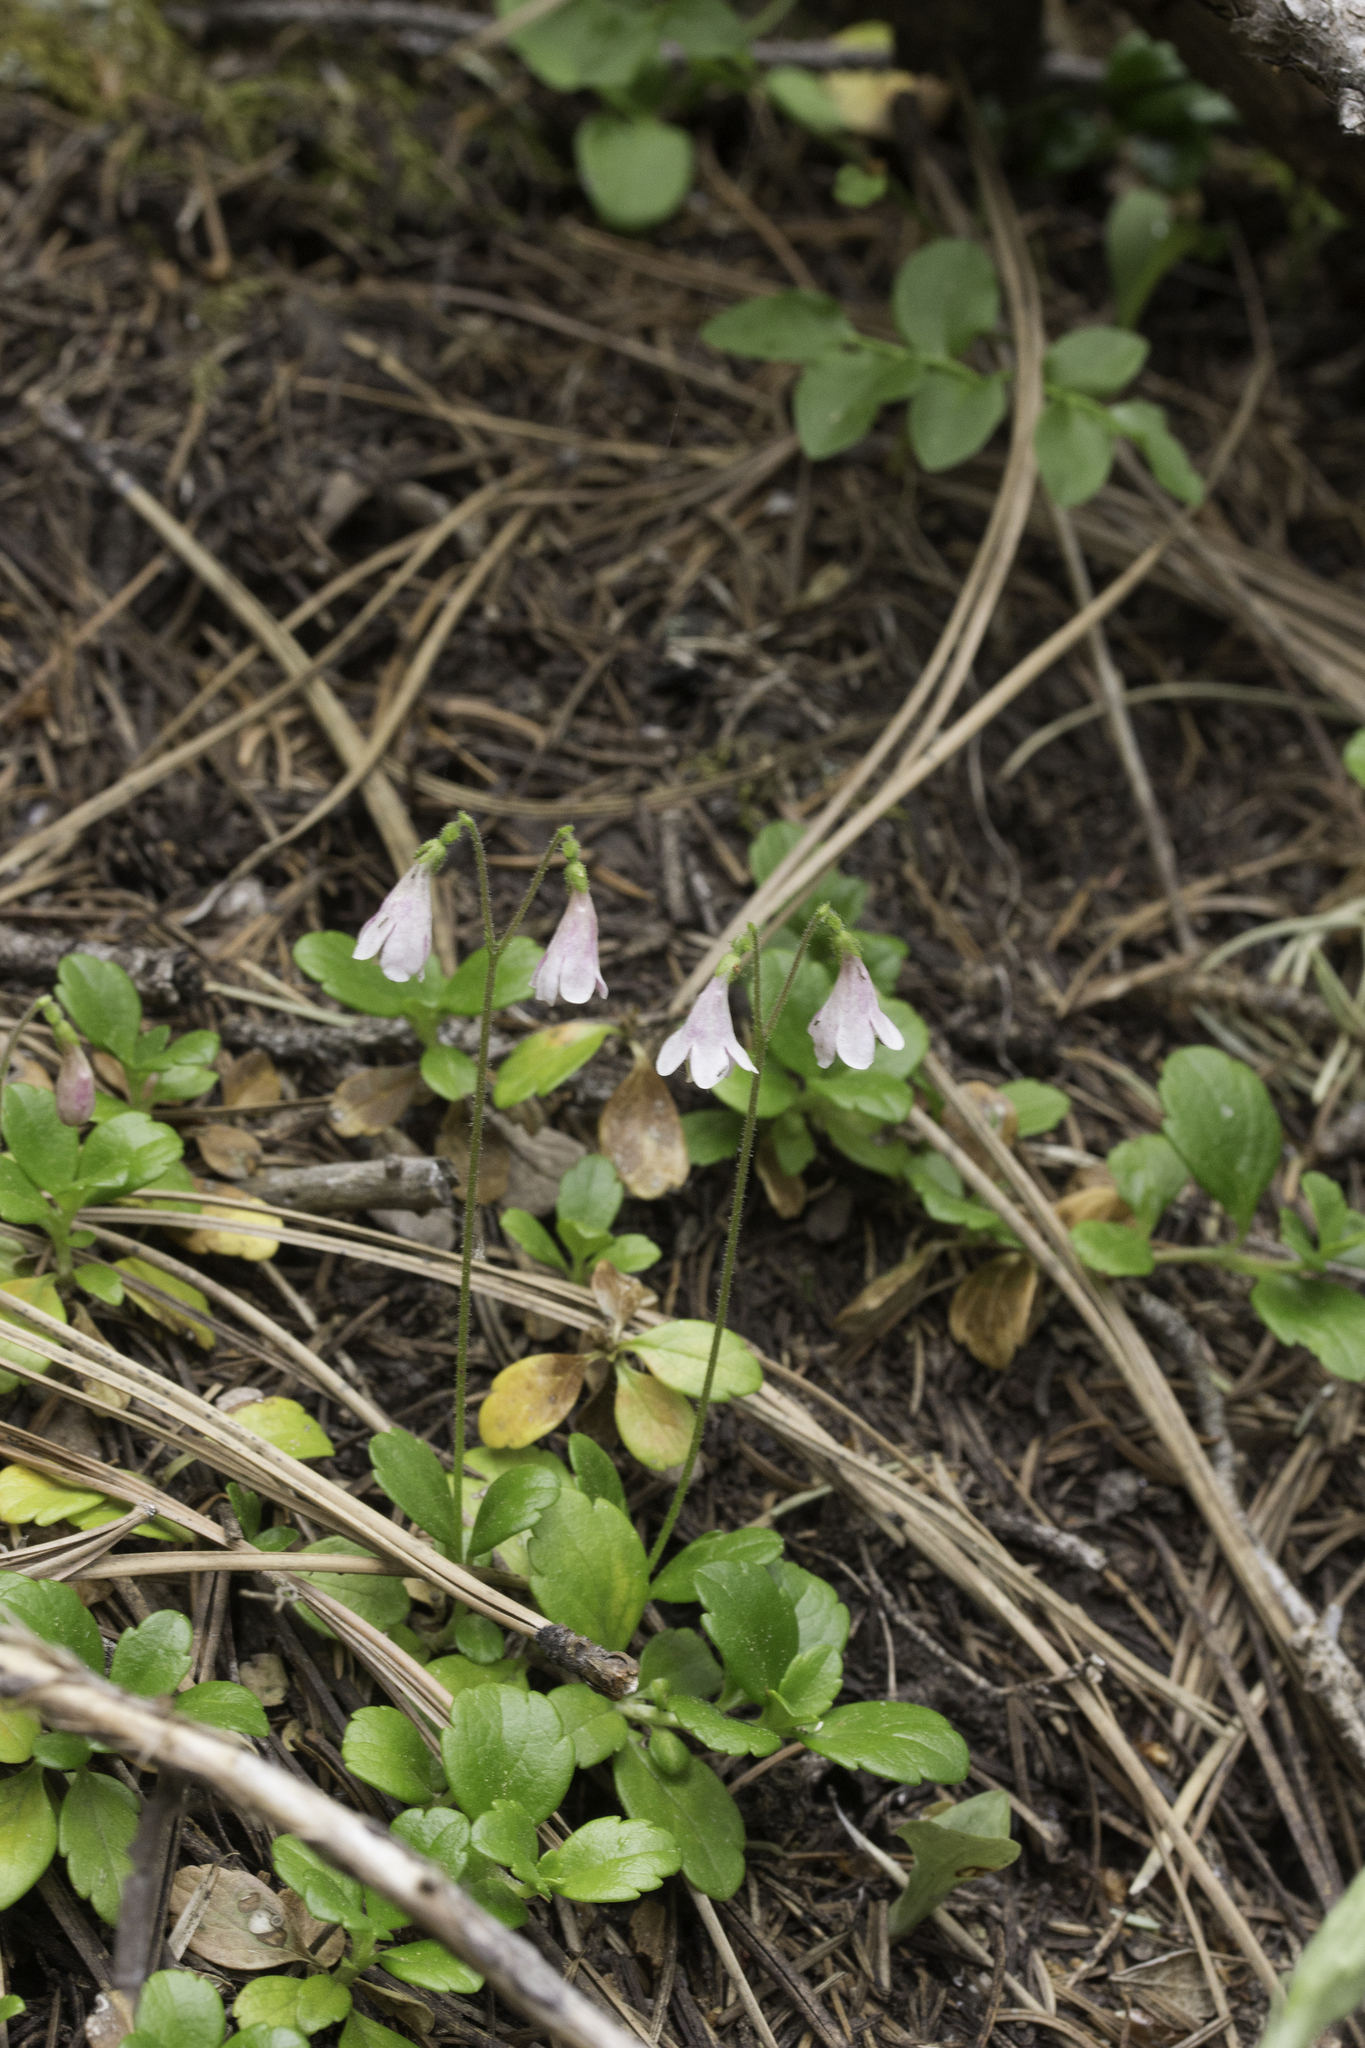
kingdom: Plantae
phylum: Tracheophyta
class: Magnoliopsida
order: Dipsacales
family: Caprifoliaceae
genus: Linnaea
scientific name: Linnaea borealis
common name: Twinflower
